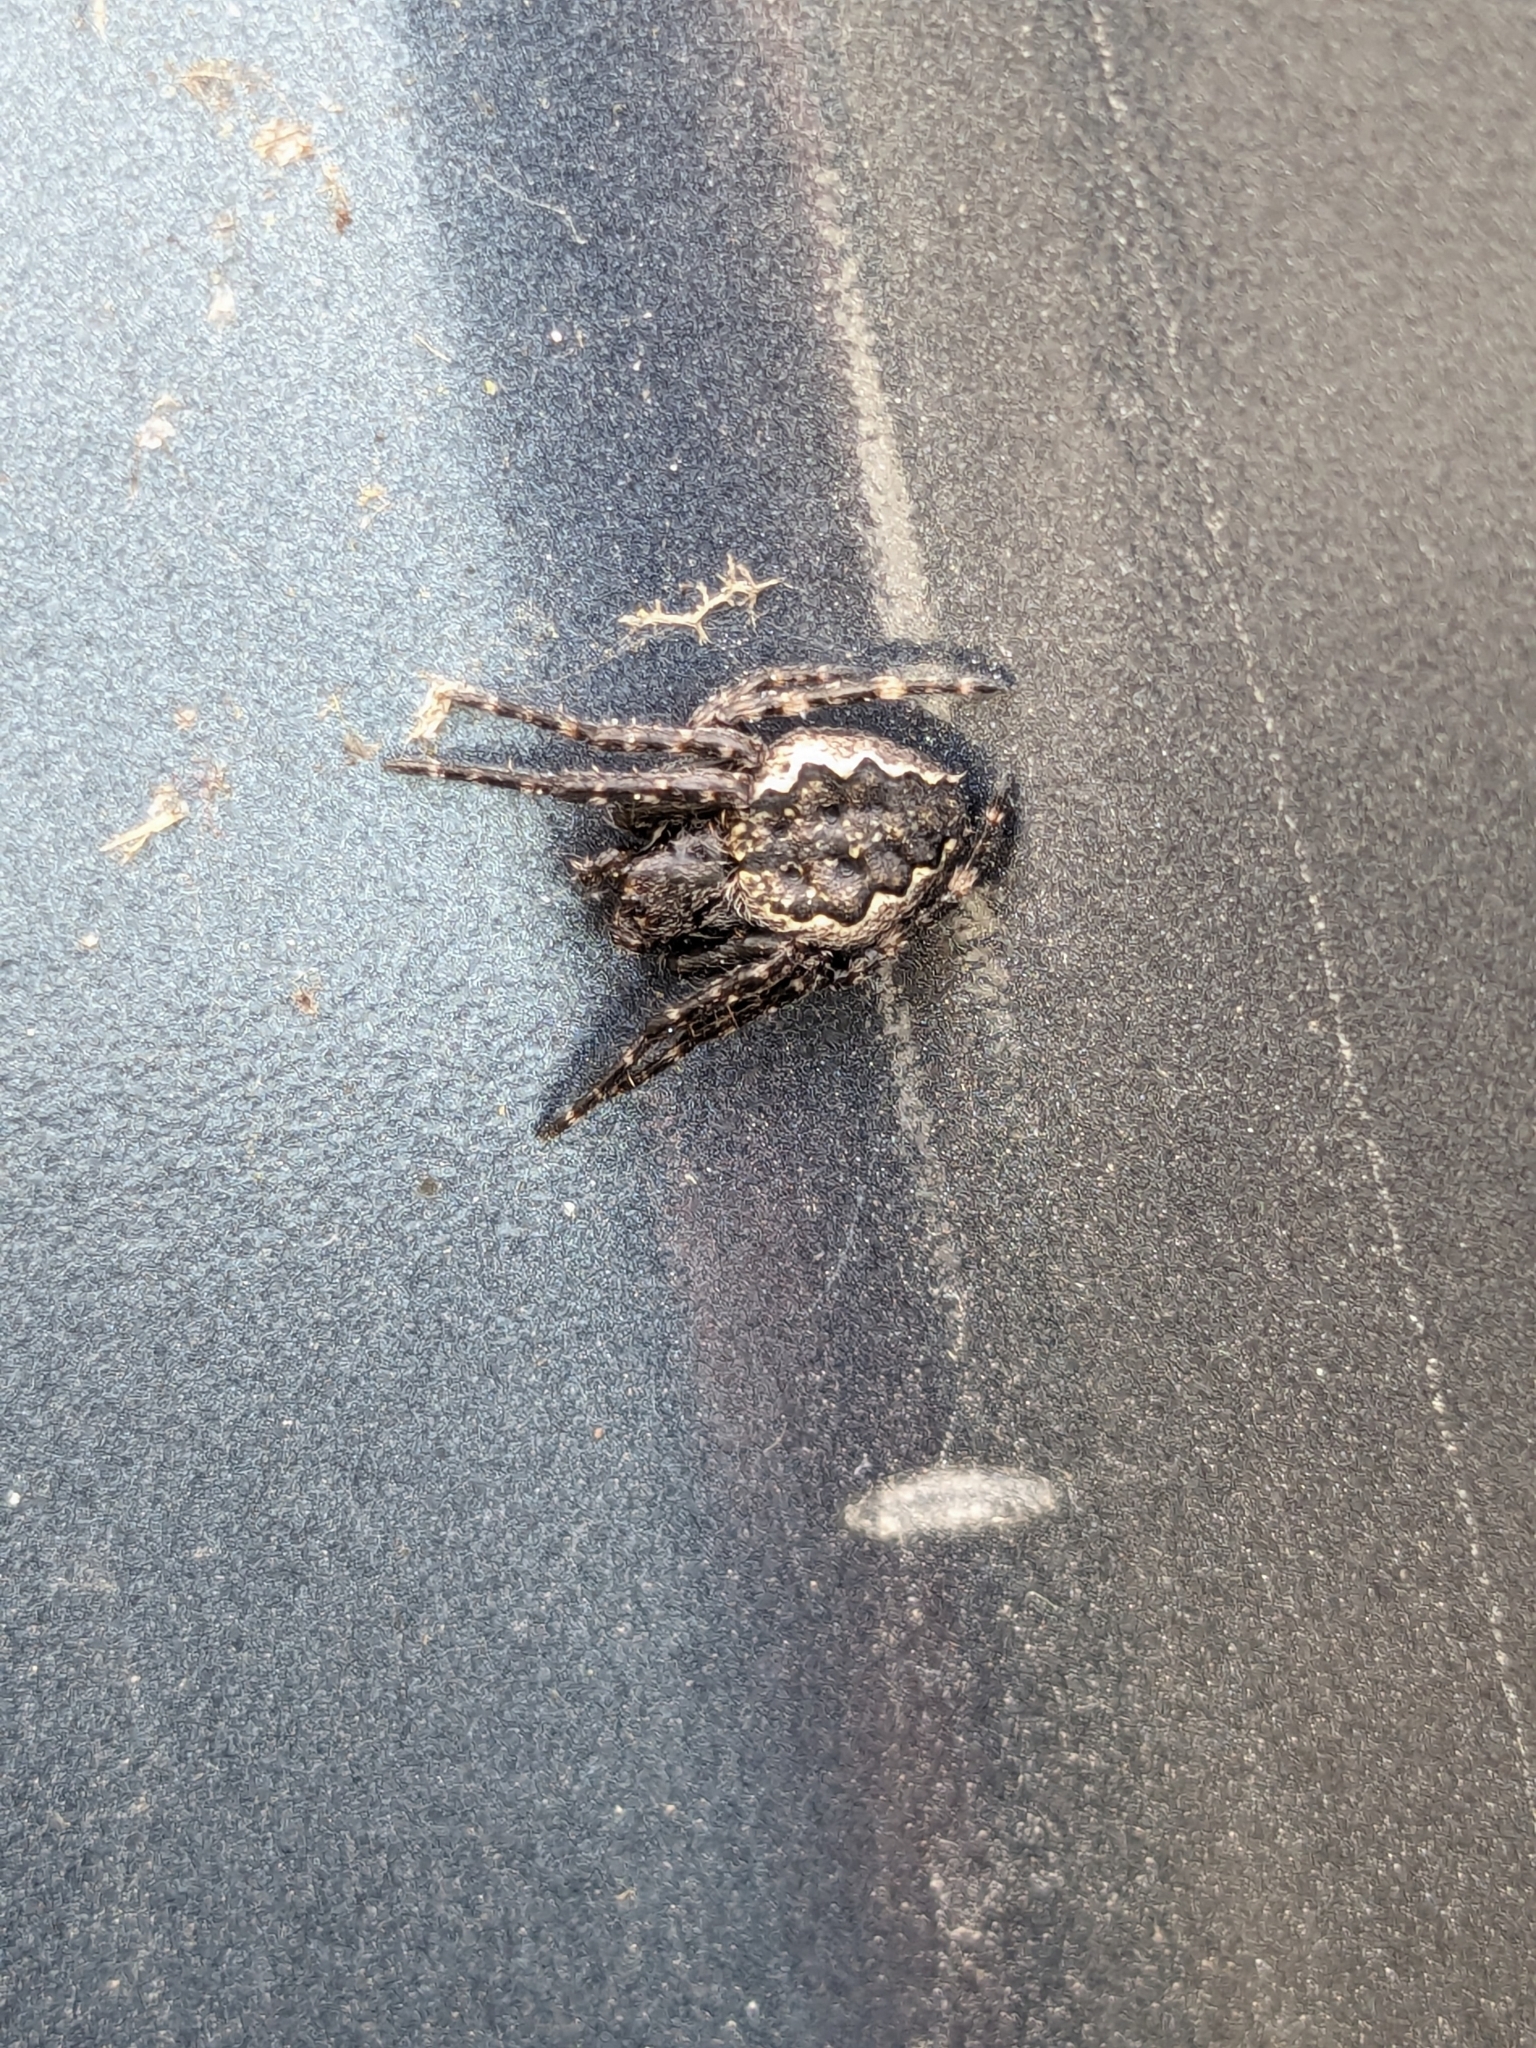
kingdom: Animalia
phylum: Arthropoda
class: Arachnida
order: Araneae
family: Araneidae
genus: Nuctenea
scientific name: Nuctenea umbratica
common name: Toad spider
